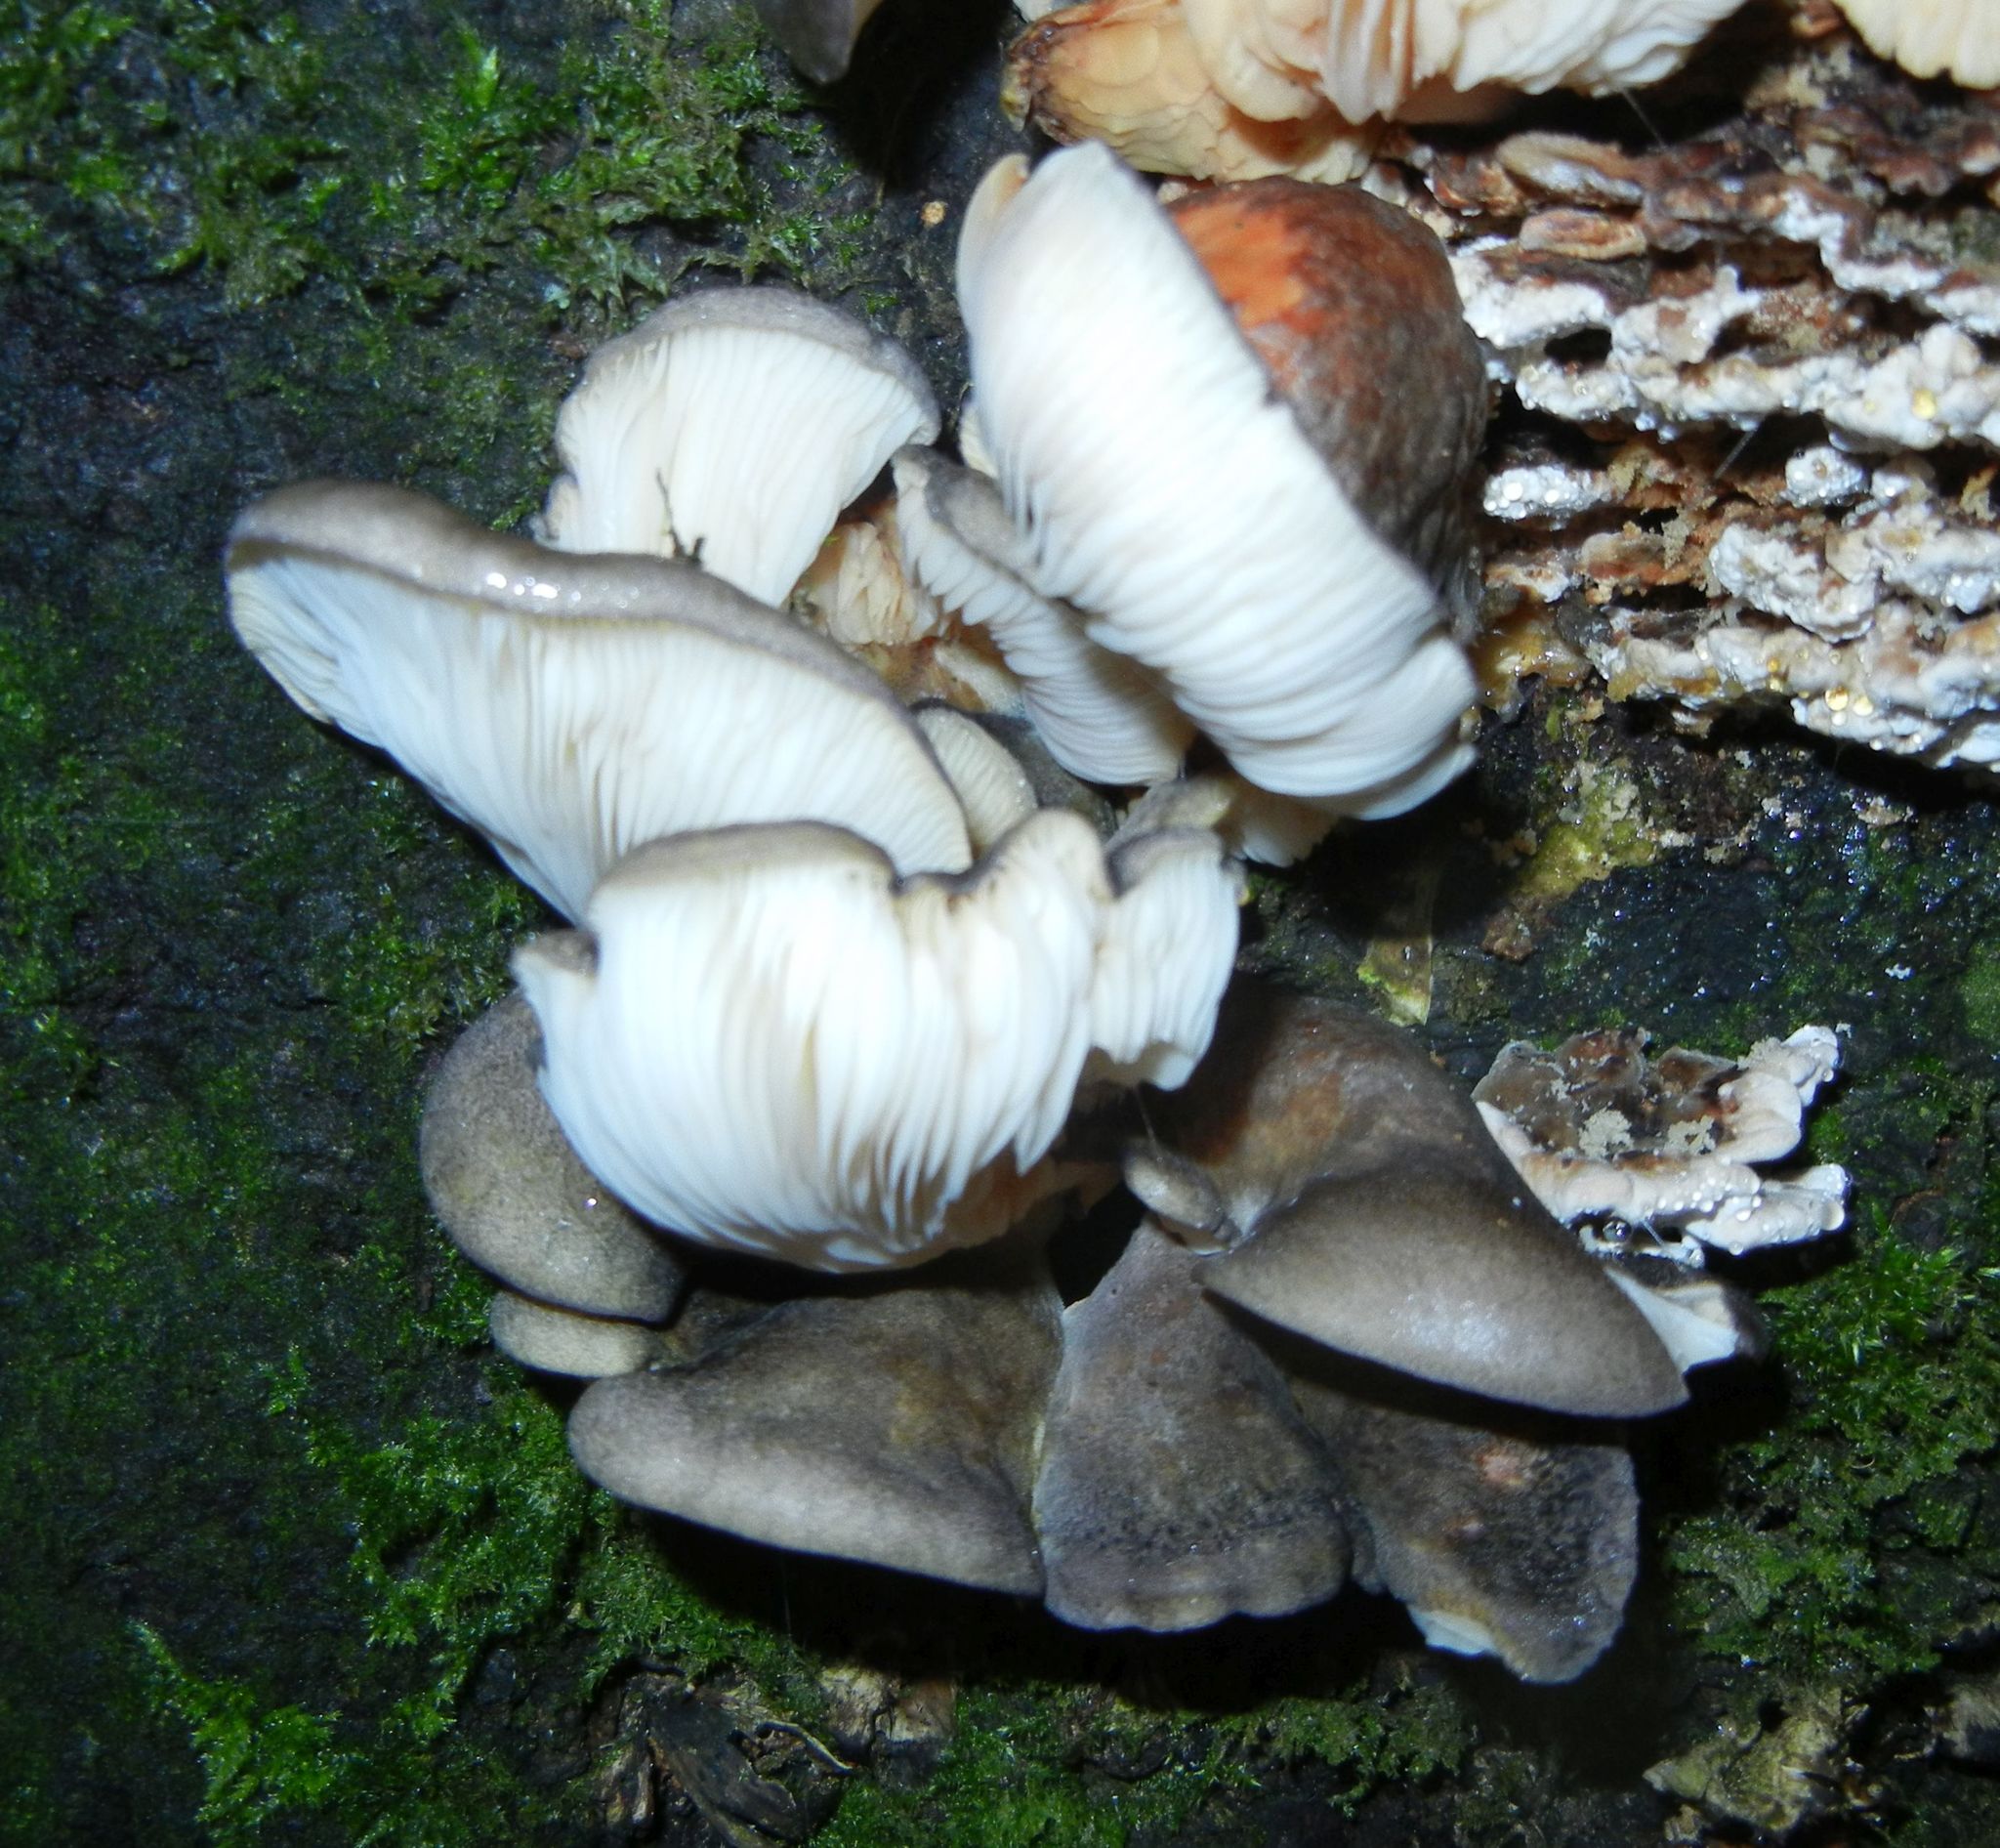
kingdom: Fungi
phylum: Basidiomycota
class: Agaricomycetes
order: Agaricales
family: Sarcomyxaceae
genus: Sarcomyxa
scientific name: Sarcomyxa serotina
